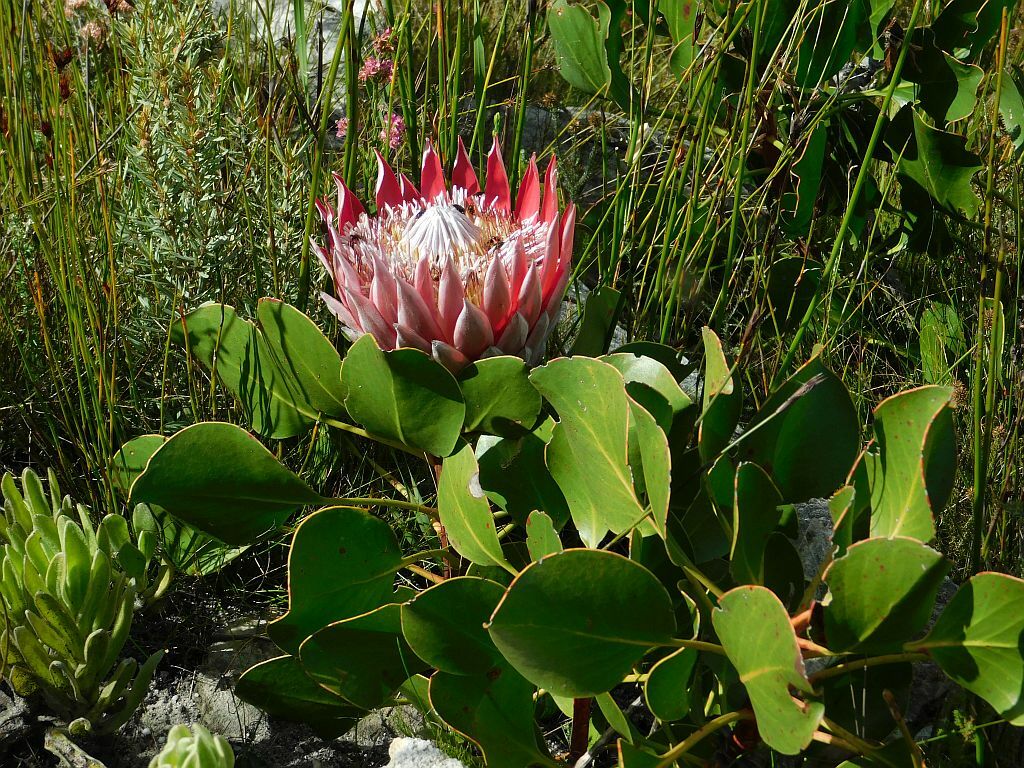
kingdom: Plantae
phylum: Tracheophyta
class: Magnoliopsida
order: Proteales
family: Proteaceae
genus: Protea
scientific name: Protea cynaroides
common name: King protea
